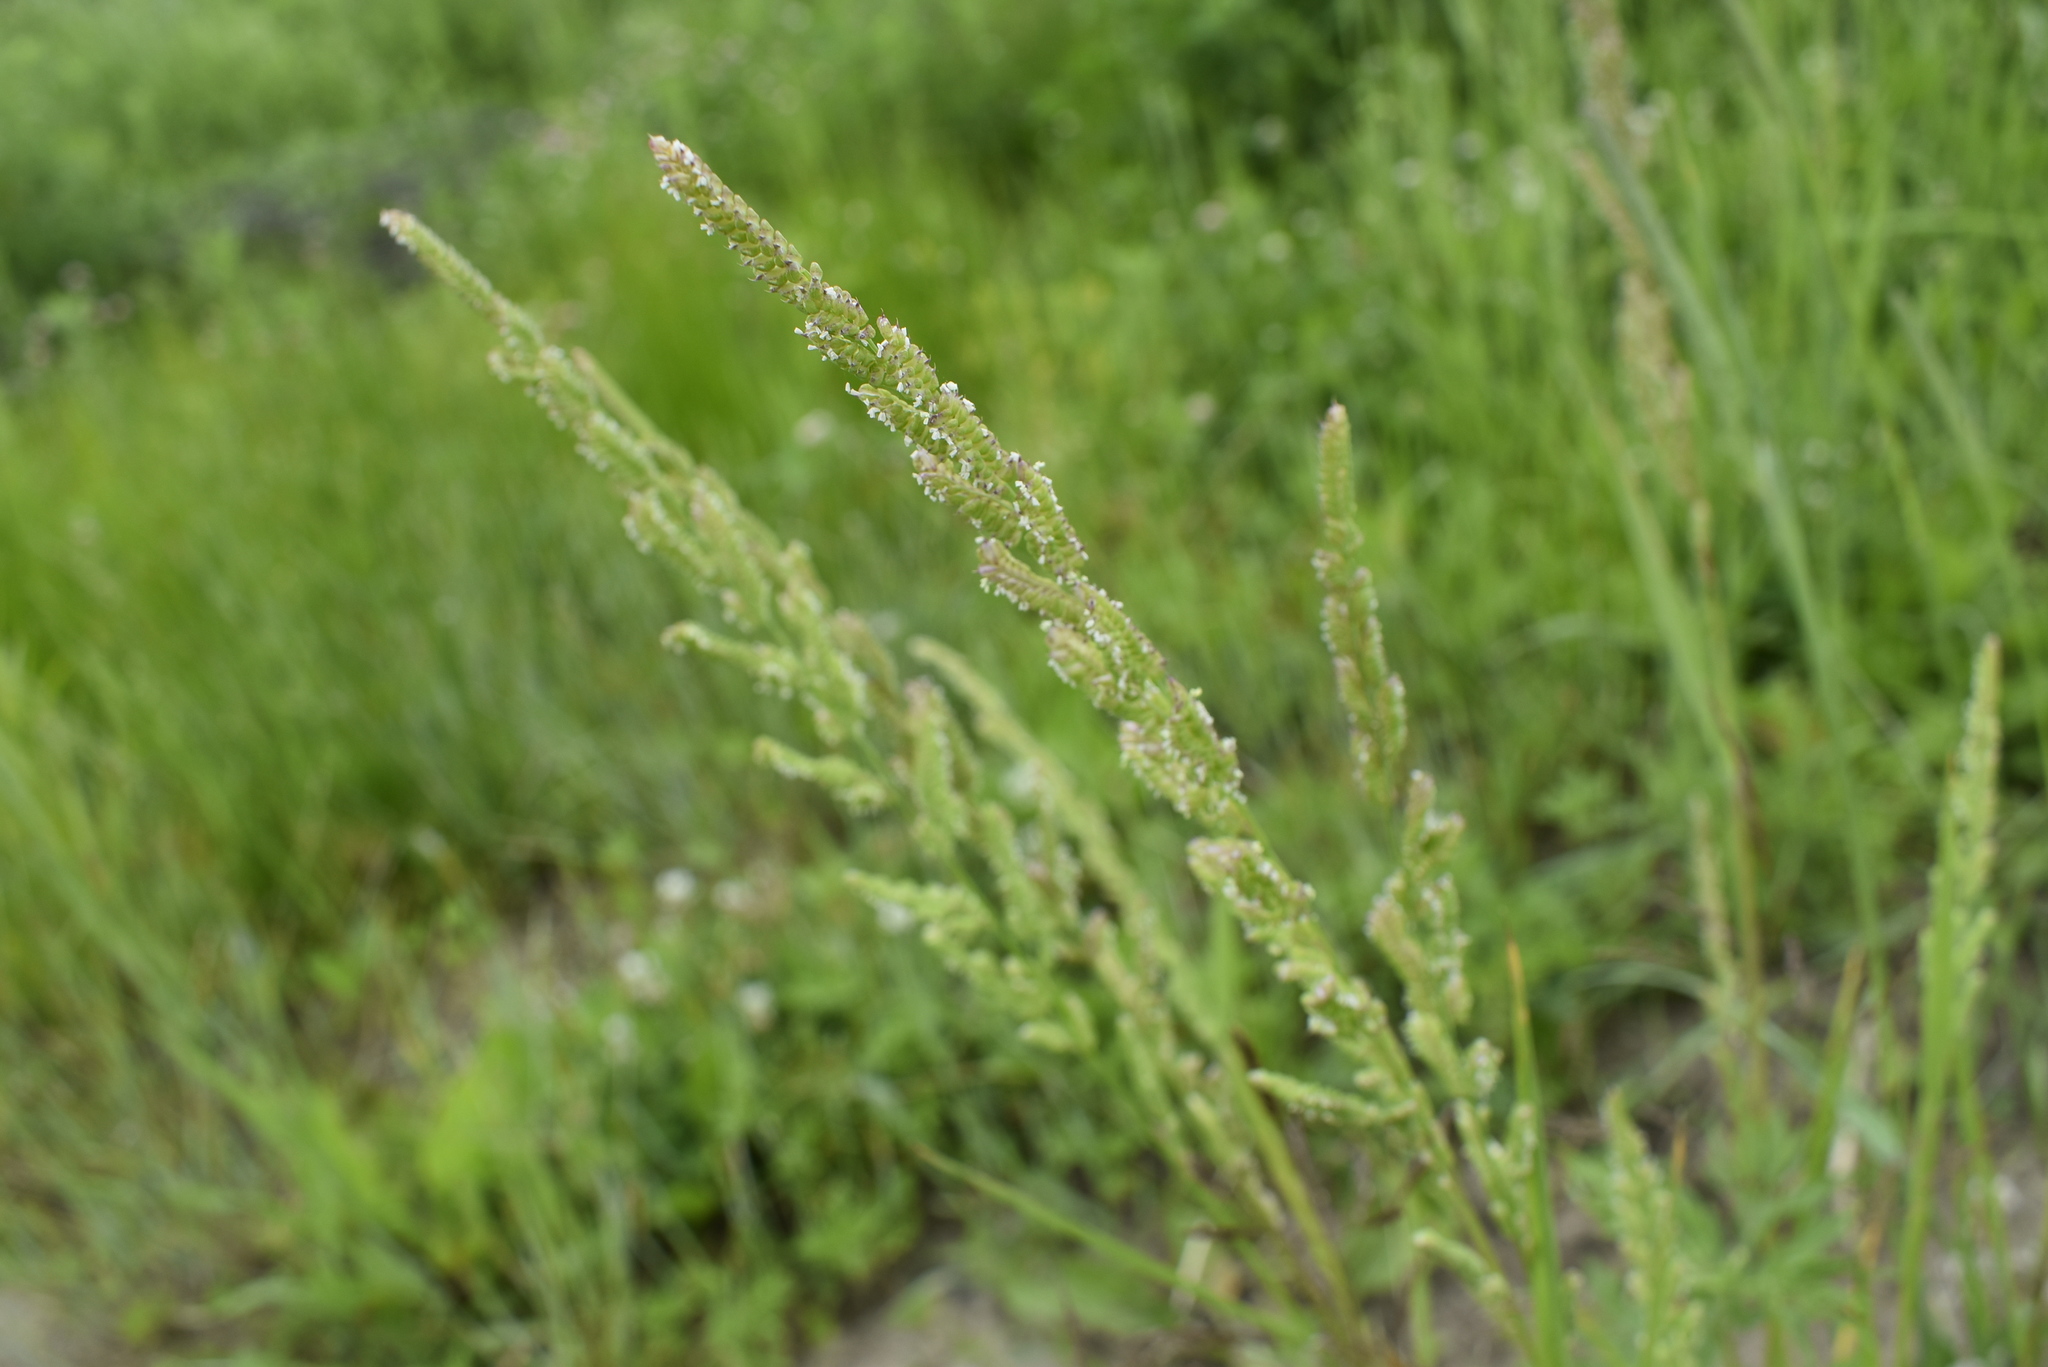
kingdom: Plantae
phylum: Tracheophyta
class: Liliopsida
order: Poales
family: Poaceae
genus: Beckmannia
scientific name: Beckmannia syzigachne
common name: American slough-grass
